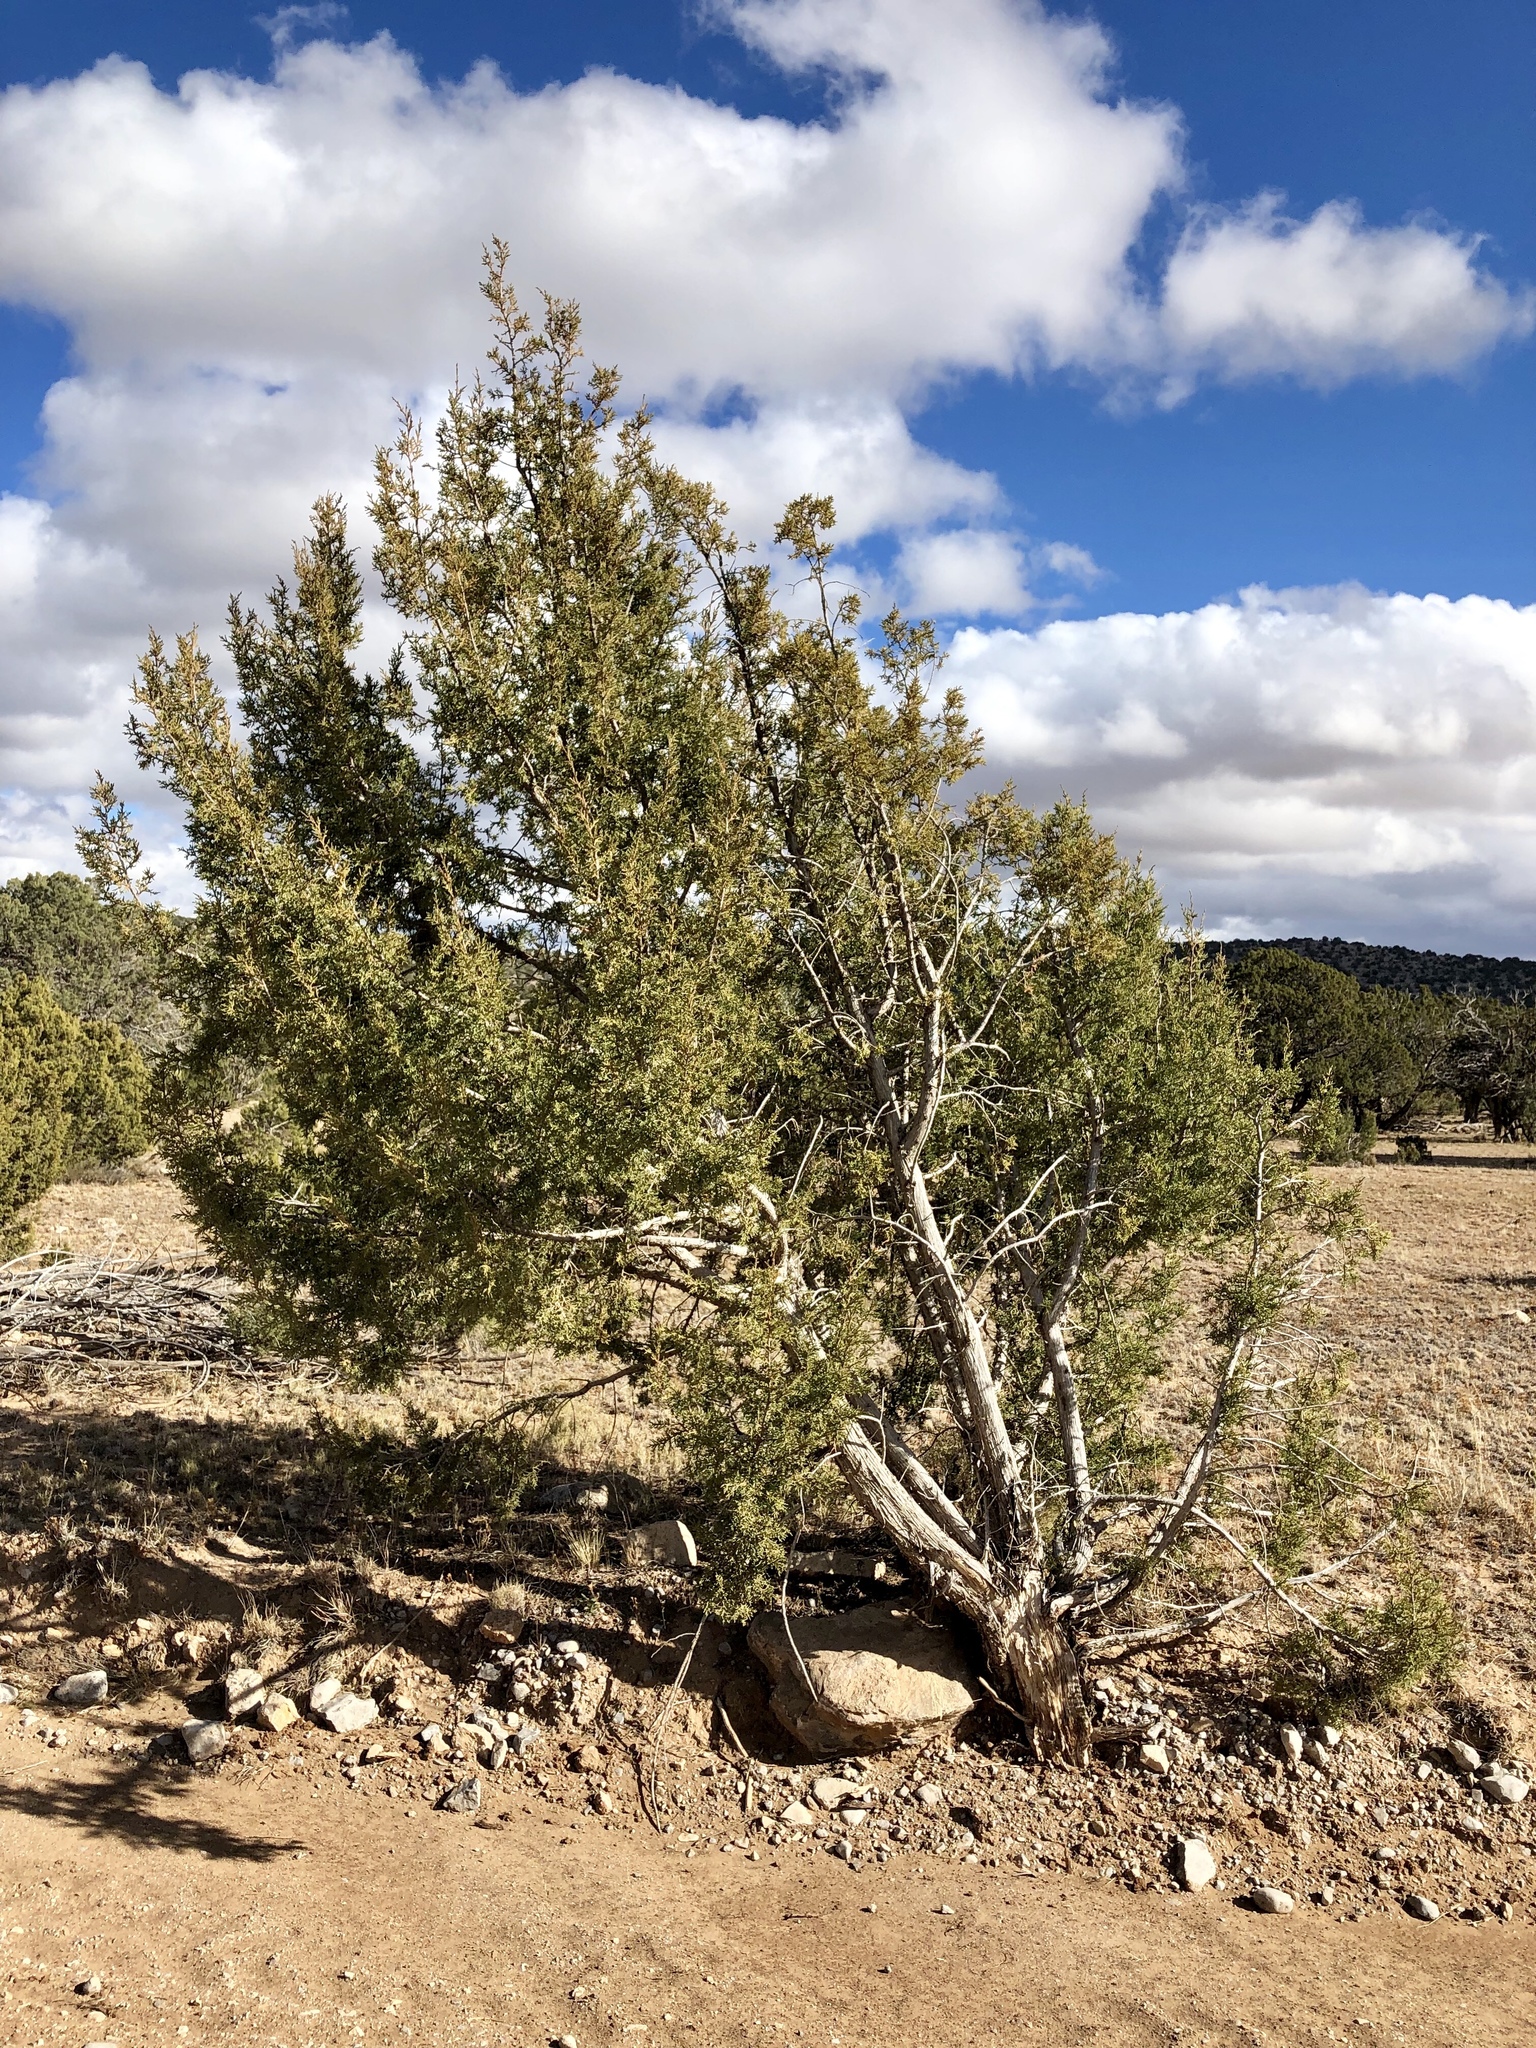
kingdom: Plantae
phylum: Tracheophyta
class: Pinopsida
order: Pinales
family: Cupressaceae
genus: Juniperus
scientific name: Juniperus monosperma
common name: One-seed juniper
